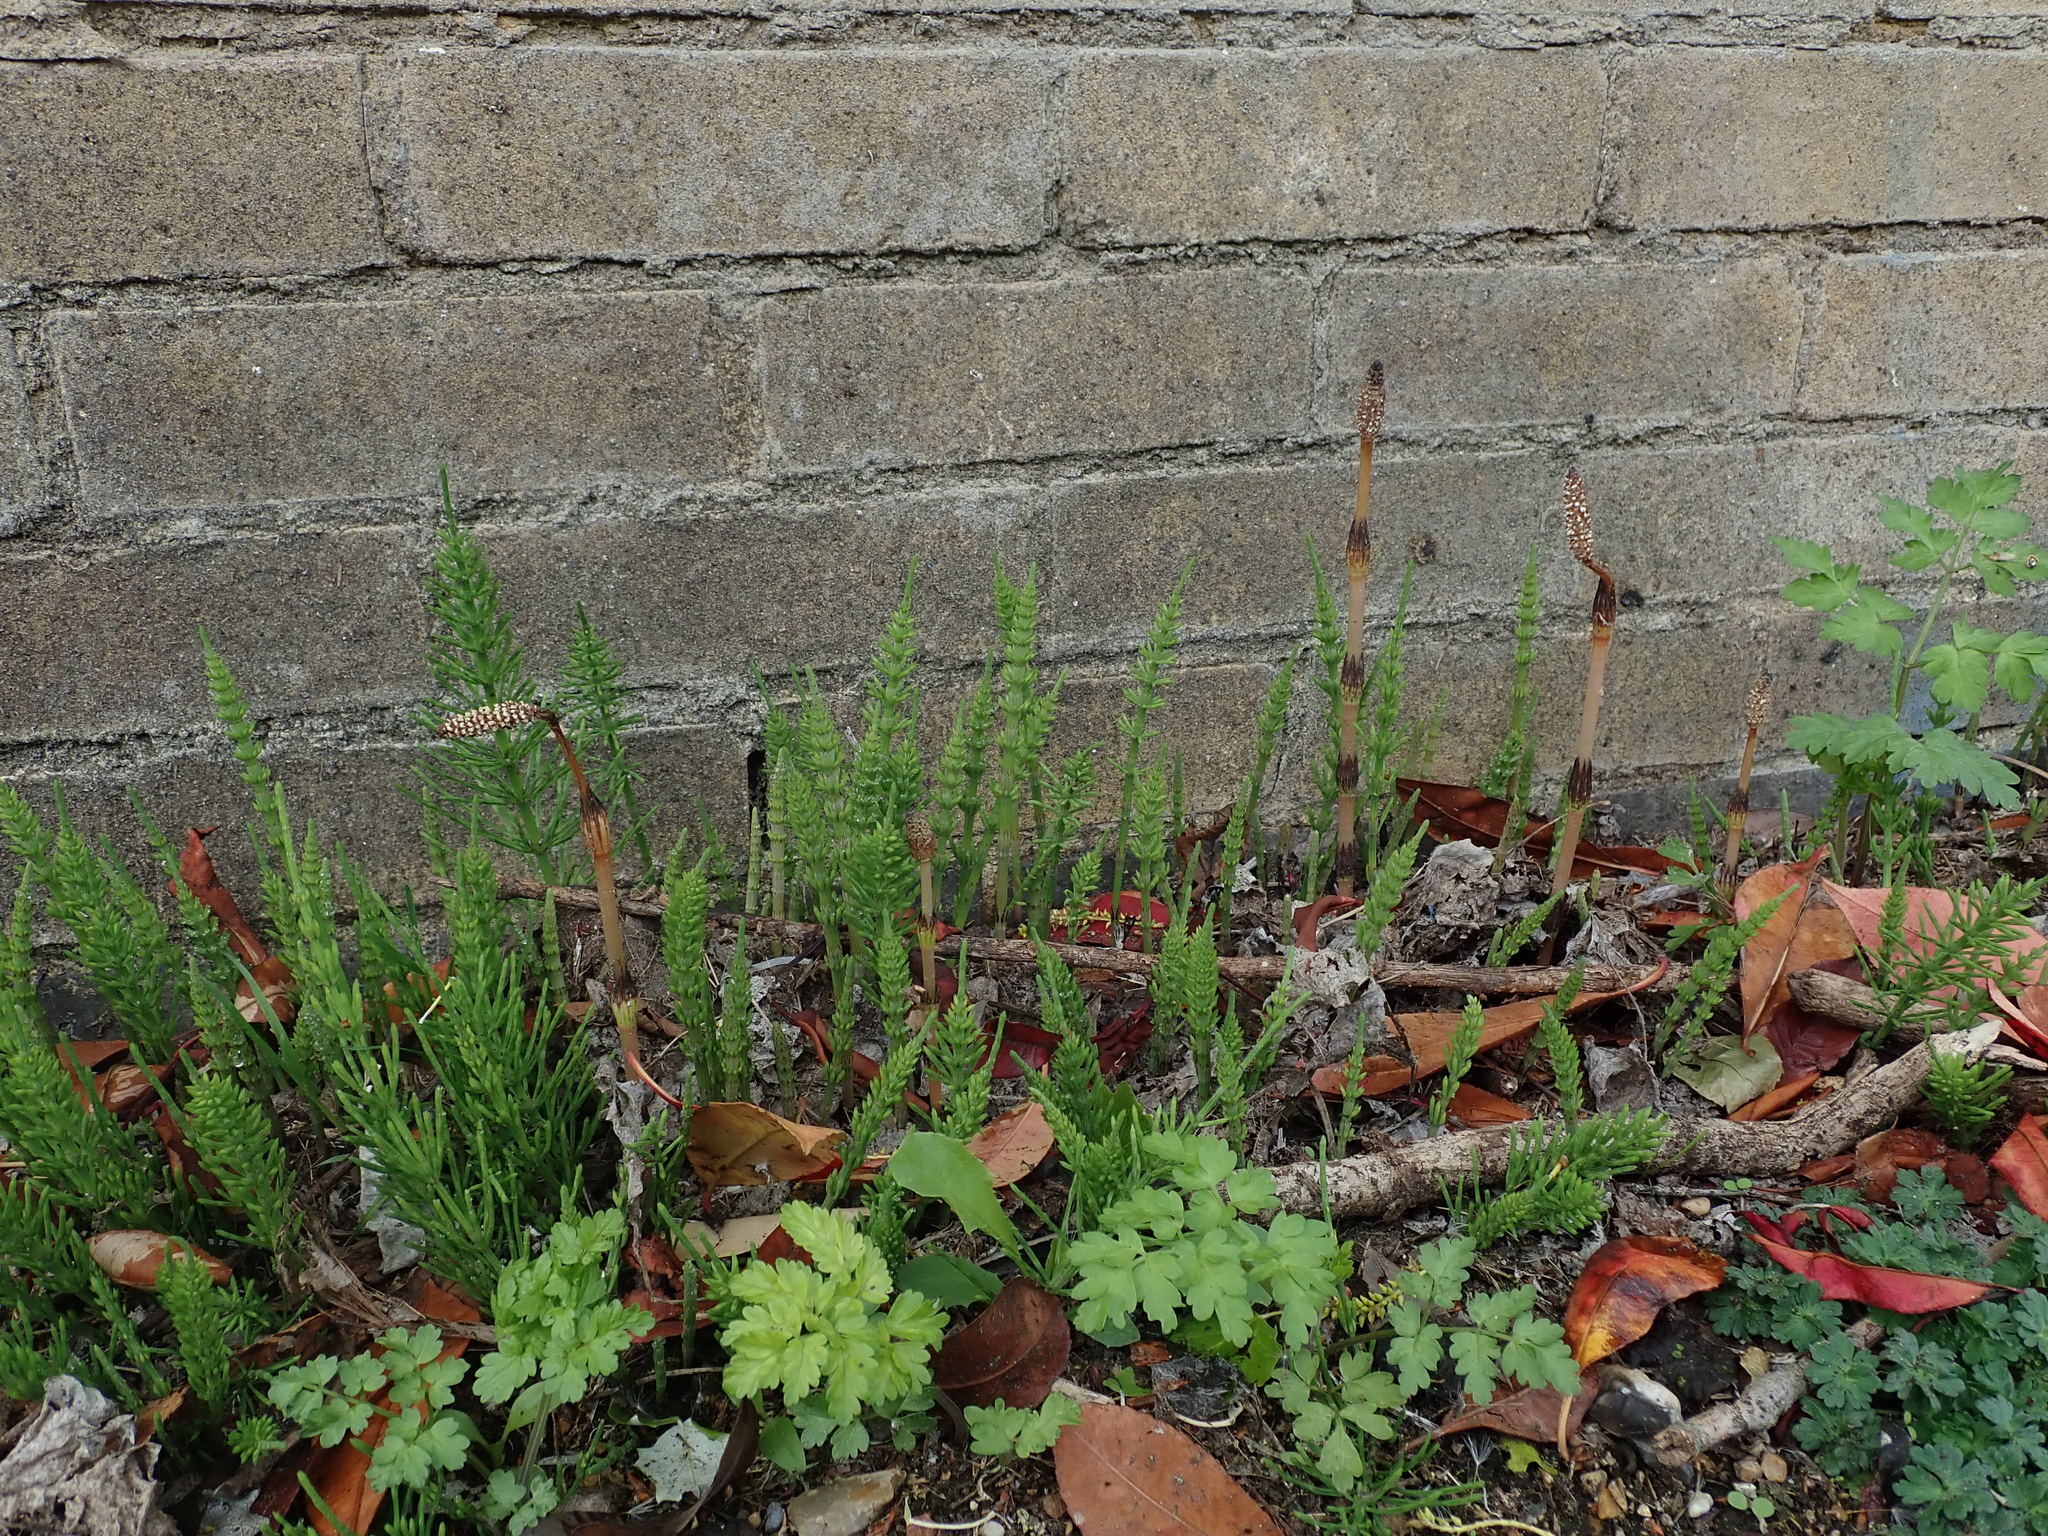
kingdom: Plantae
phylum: Tracheophyta
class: Polypodiopsida
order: Equisetales
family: Equisetaceae
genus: Equisetum
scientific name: Equisetum arvense
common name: Field horsetail
